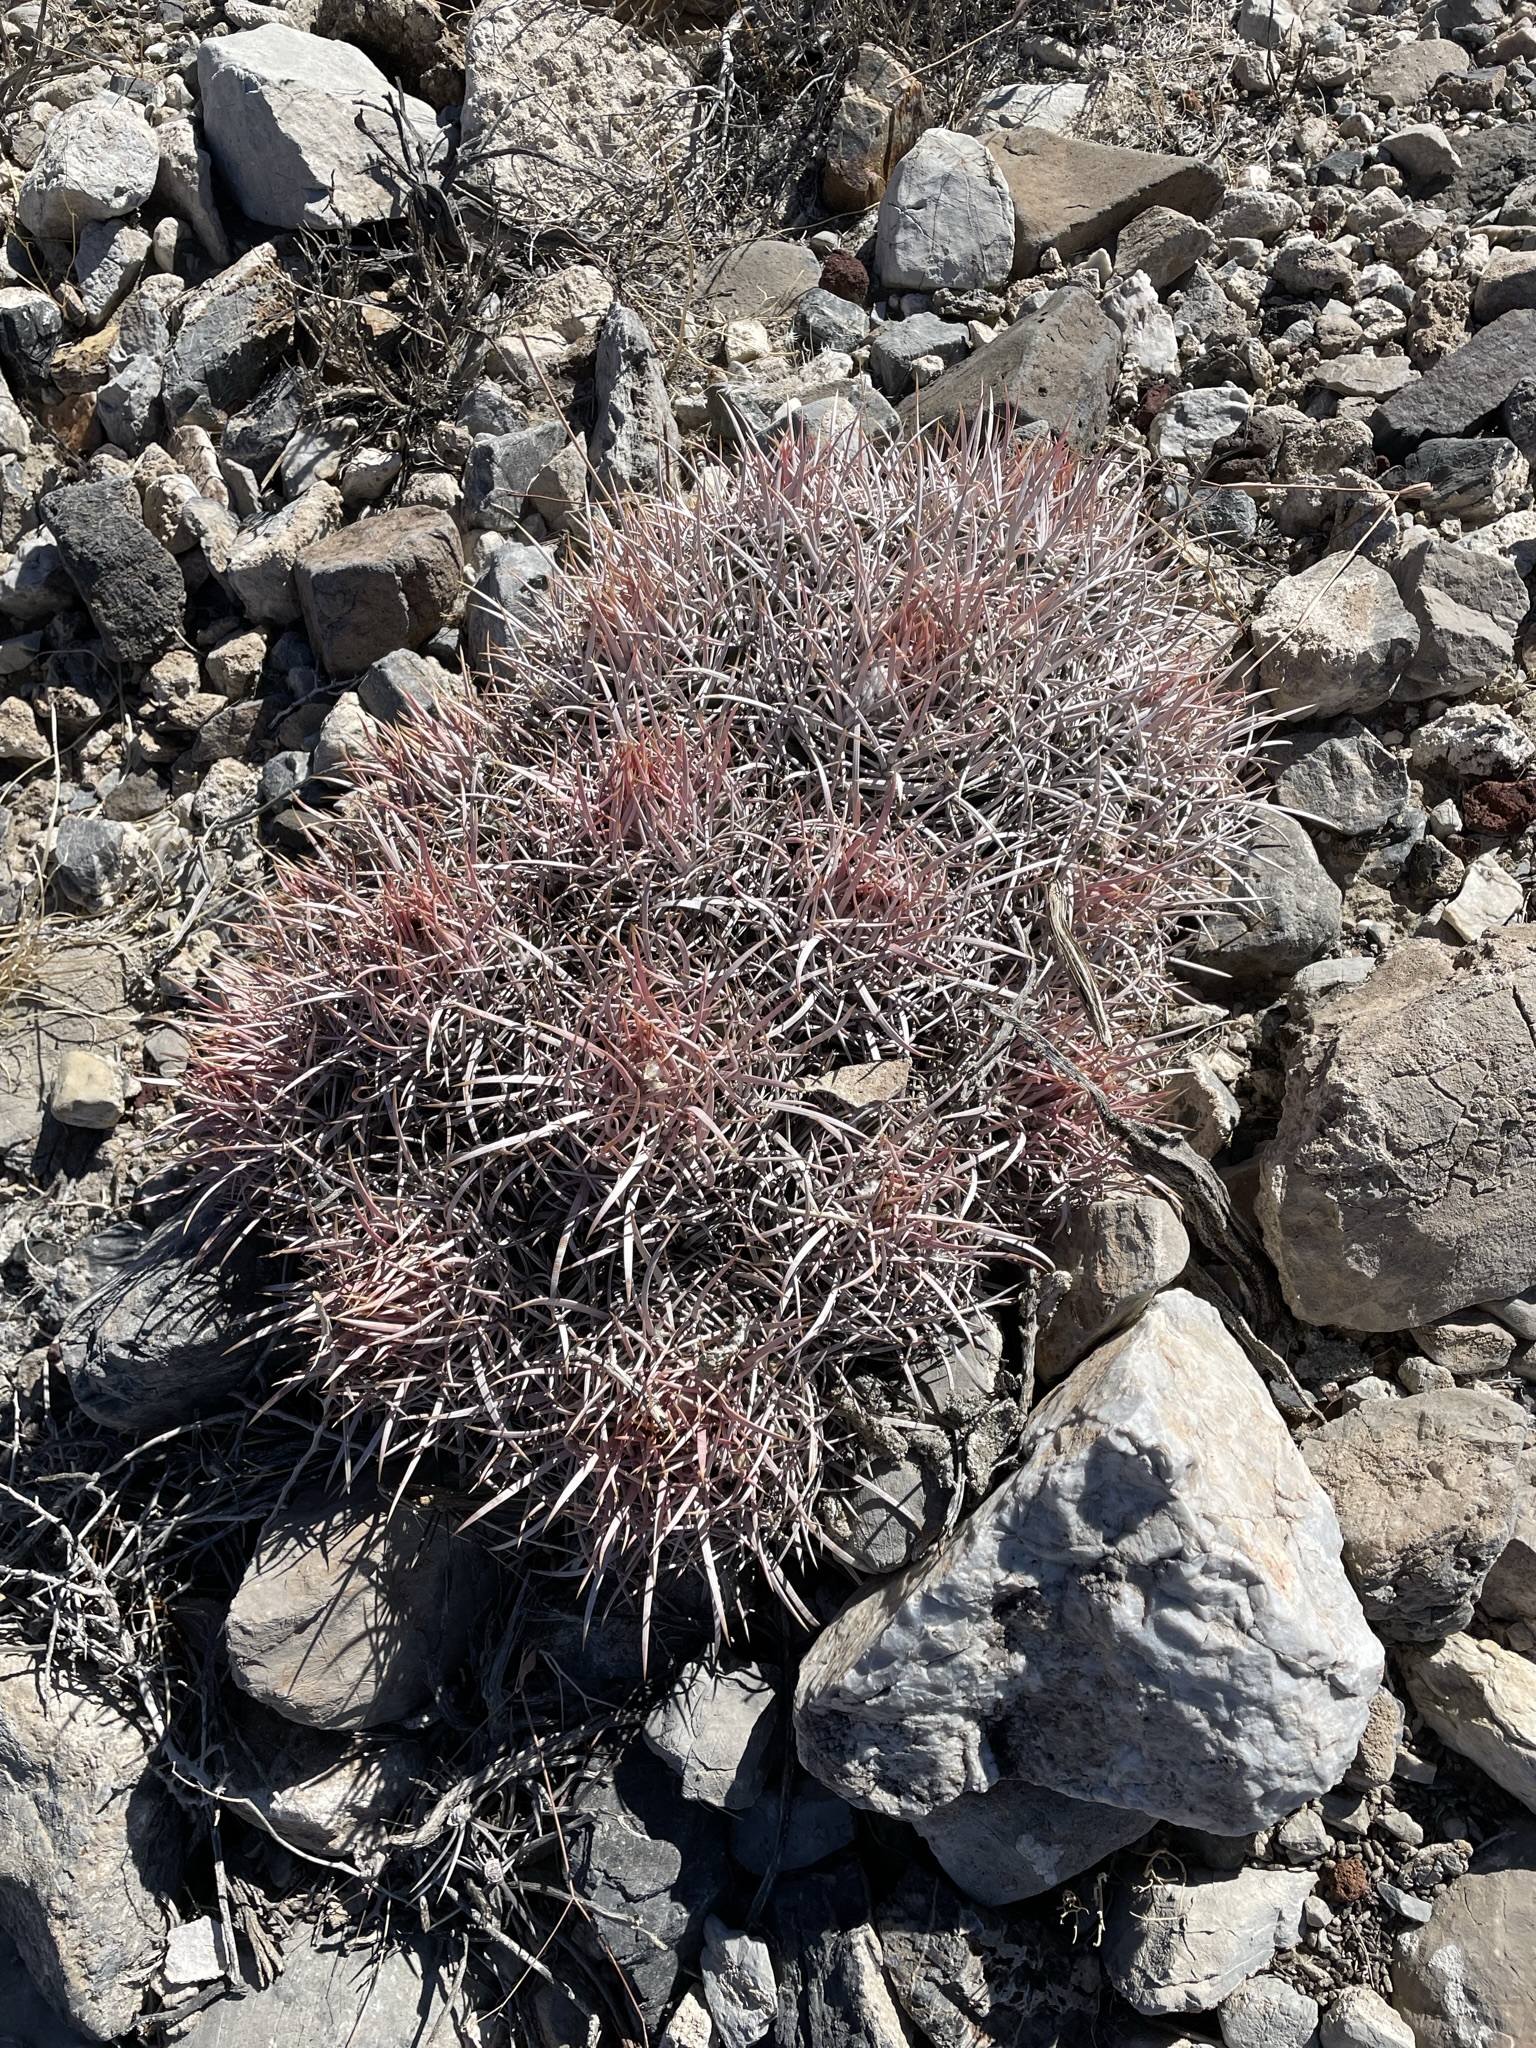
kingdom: Plantae
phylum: Tracheophyta
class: Magnoliopsida
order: Caryophyllales
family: Cactaceae
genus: Echinocactus
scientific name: Echinocactus polycephalus
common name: Cottontop cactus
